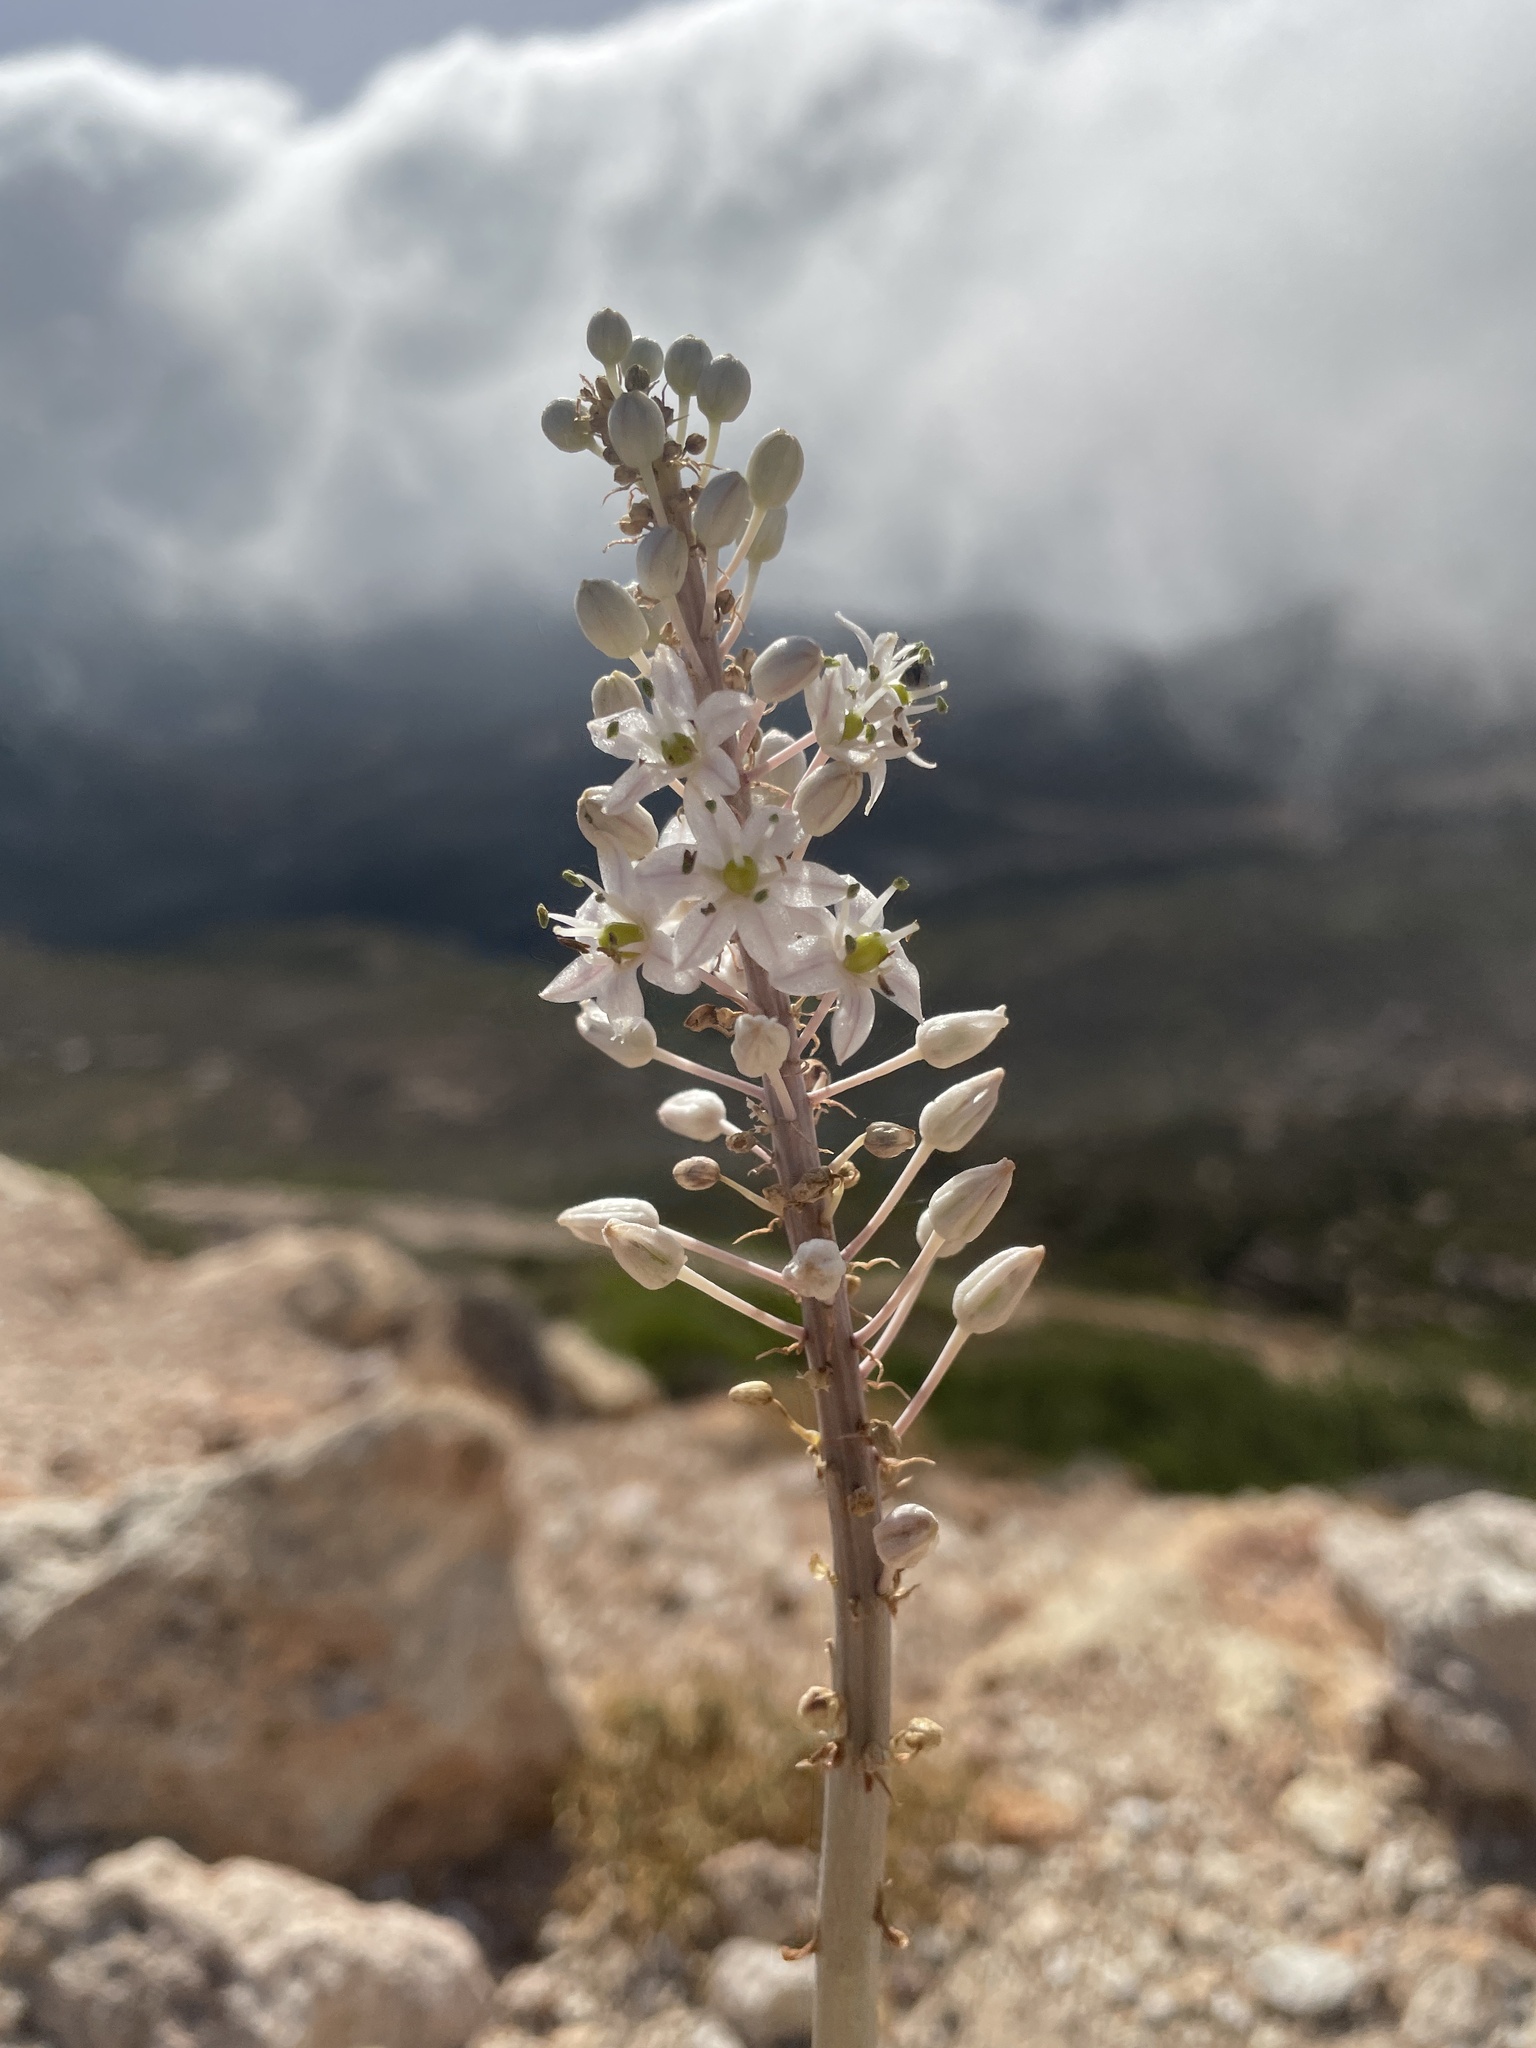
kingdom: Plantae
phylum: Tracheophyta
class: Liliopsida
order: Asparagales
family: Asparagaceae
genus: Drimia
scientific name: Drimia numidica
